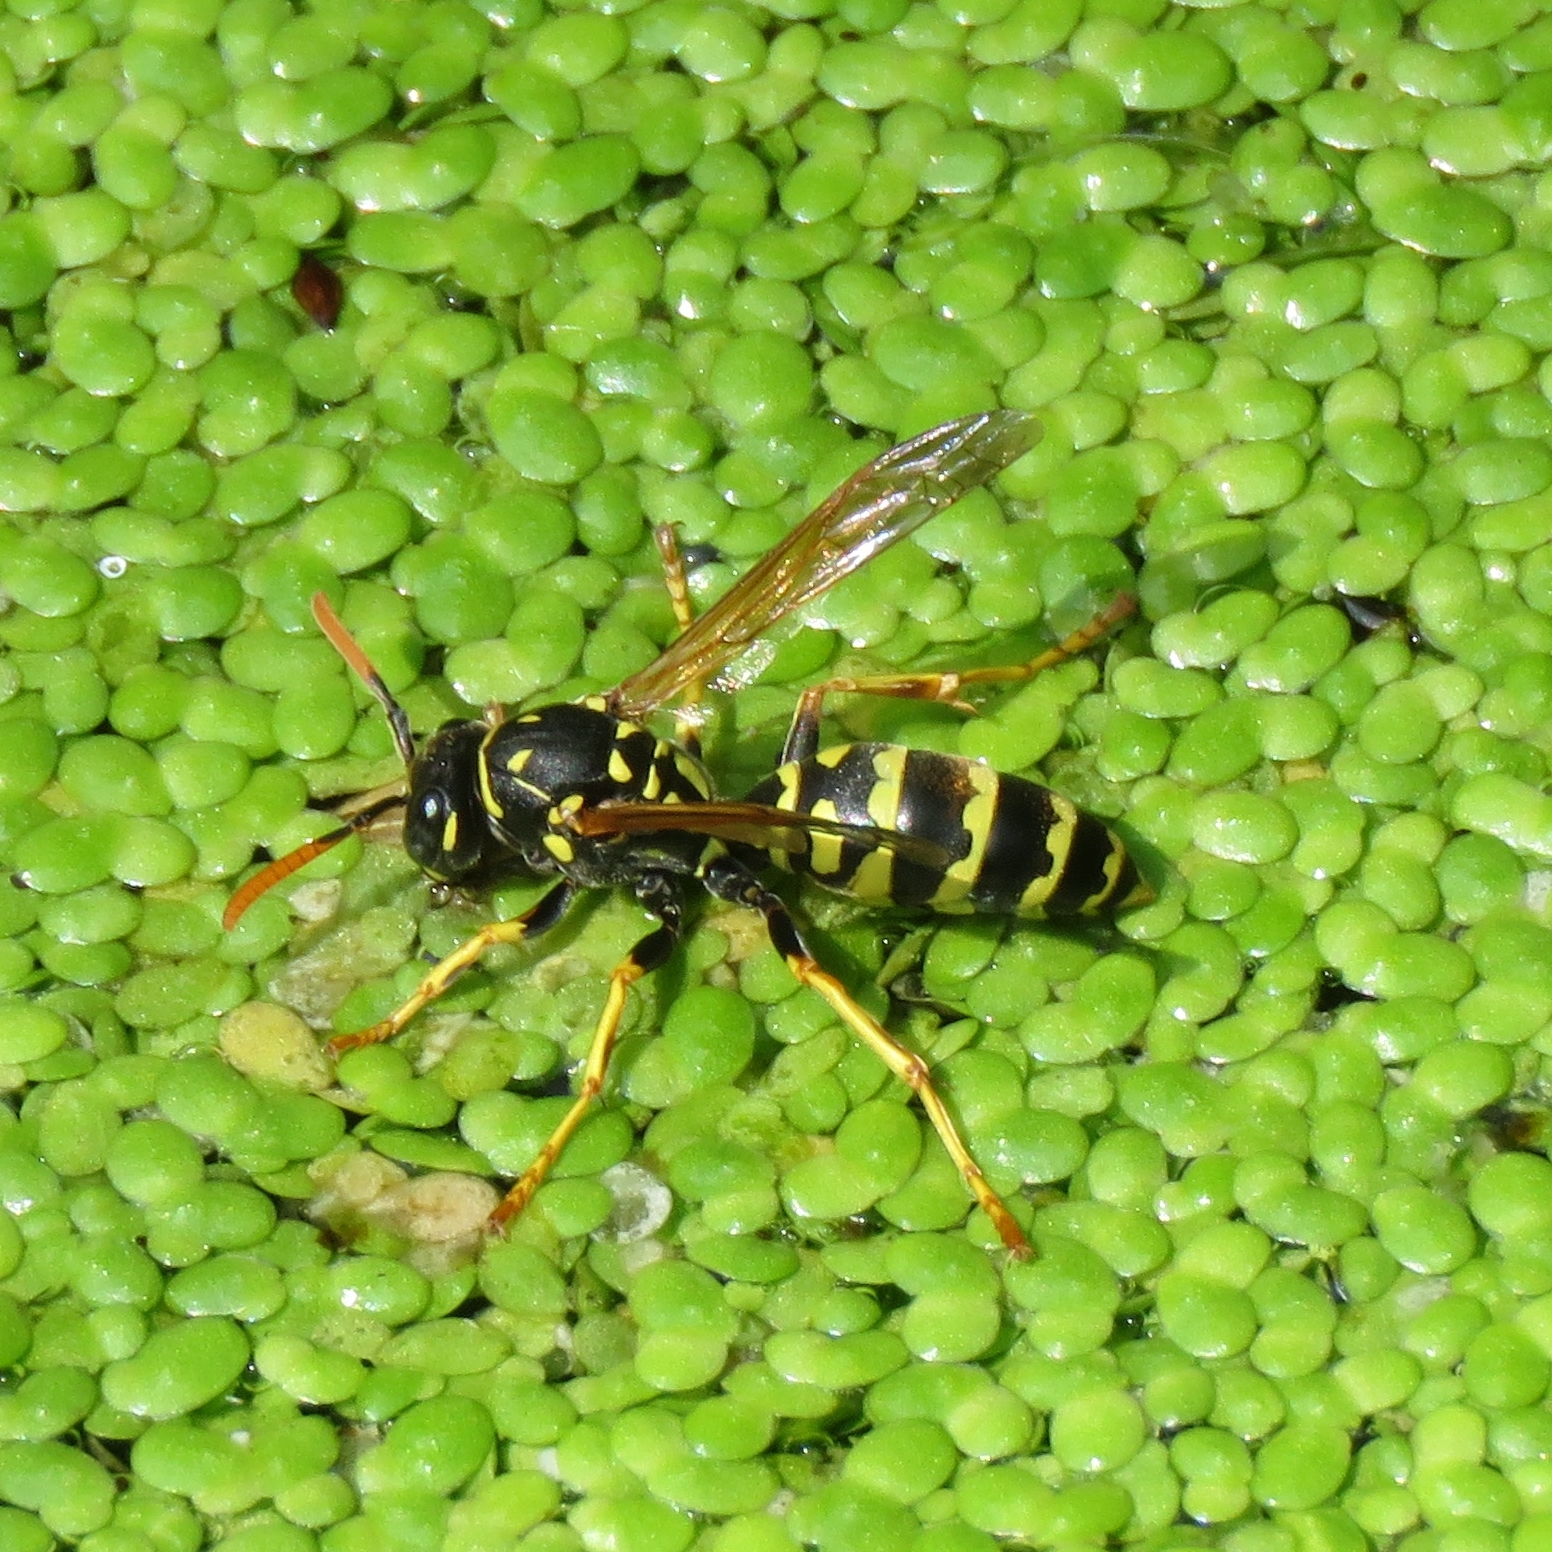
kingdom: Animalia
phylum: Arthropoda
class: Insecta
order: Hymenoptera
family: Eumenidae
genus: Polistes
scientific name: Polistes dominula
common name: Paper wasp
